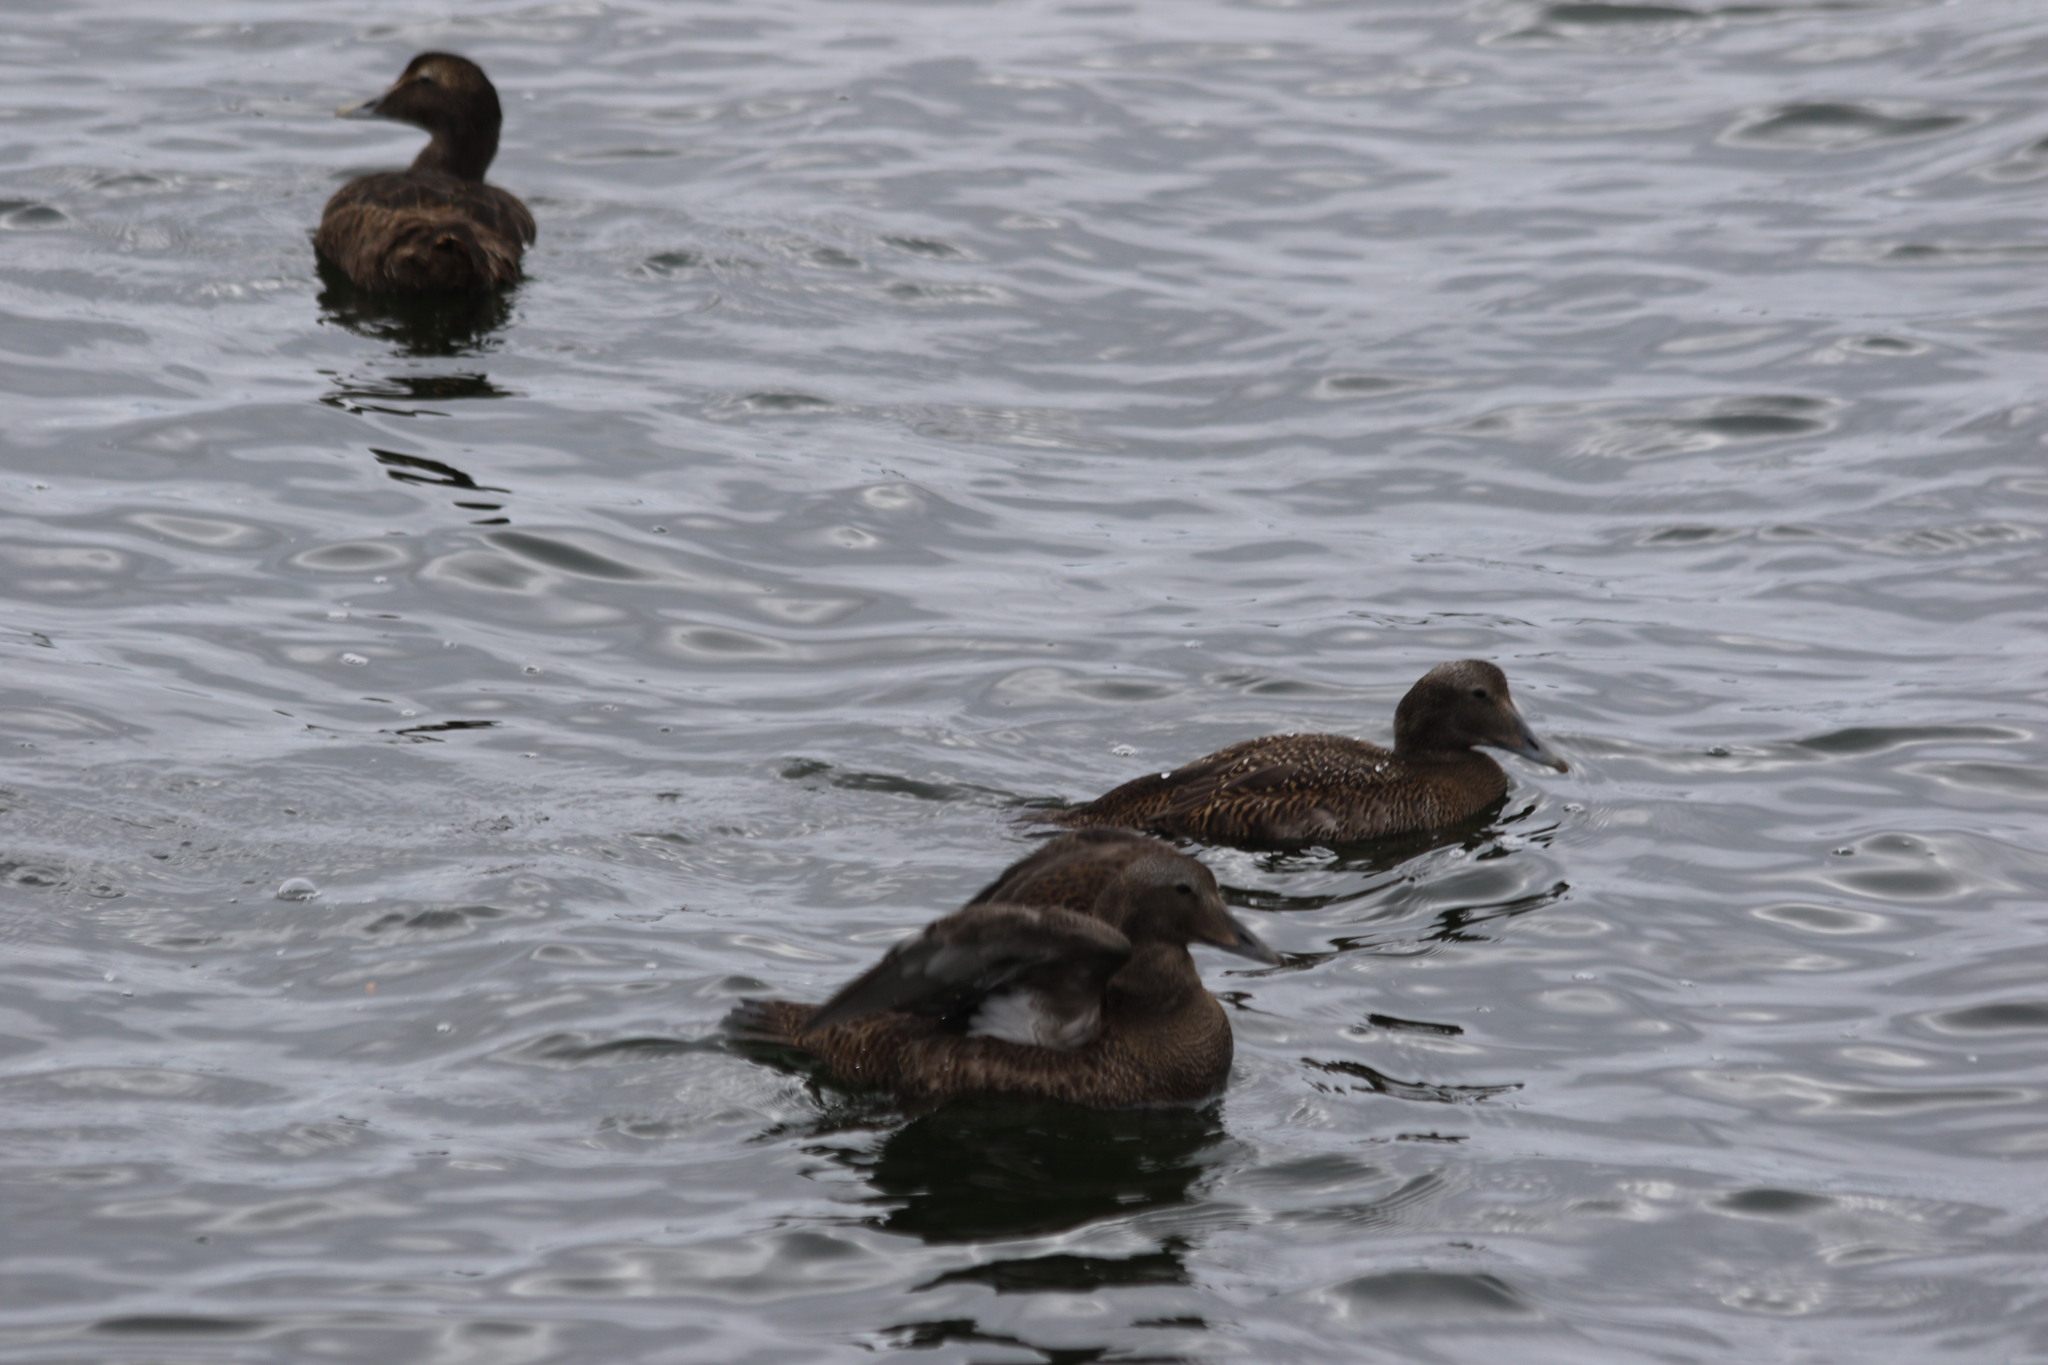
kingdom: Animalia
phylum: Chordata
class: Aves
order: Anseriformes
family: Anatidae
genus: Somateria
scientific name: Somateria mollissima
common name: Common eider
